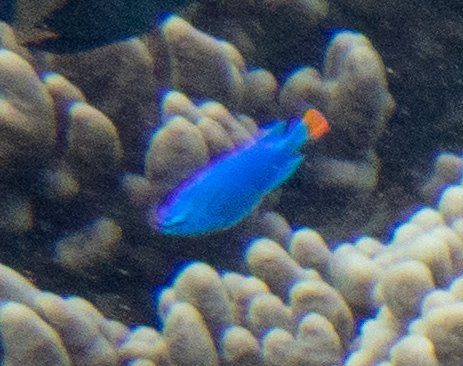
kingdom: Animalia
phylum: Chordata
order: Perciformes
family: Pomacentridae
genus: Chrysiptera
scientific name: Chrysiptera cyanea
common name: Blue devil
